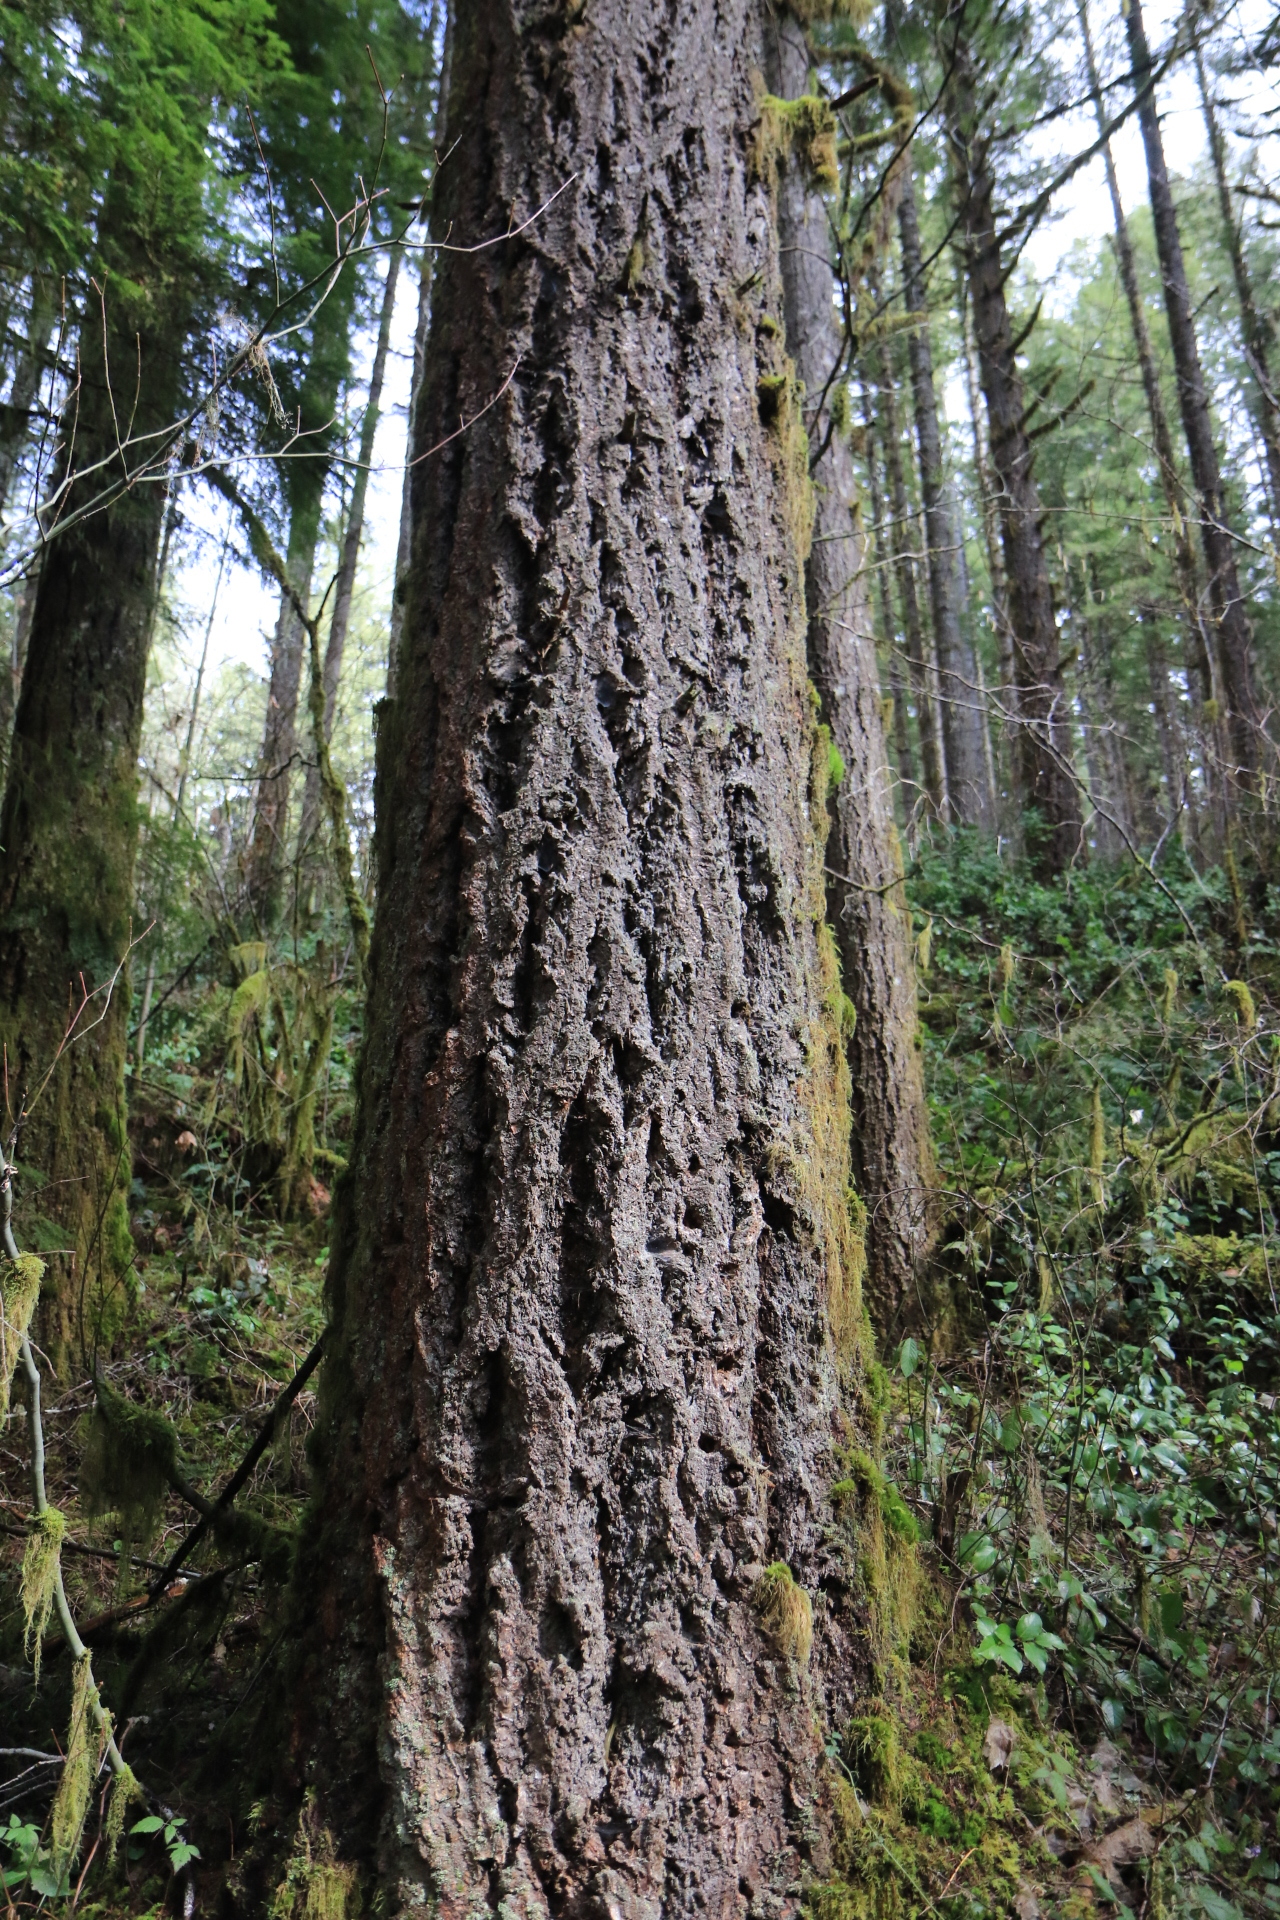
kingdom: Plantae
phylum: Tracheophyta
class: Pinopsida
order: Pinales
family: Pinaceae
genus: Pseudotsuga
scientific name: Pseudotsuga menziesii
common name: Douglas fir
